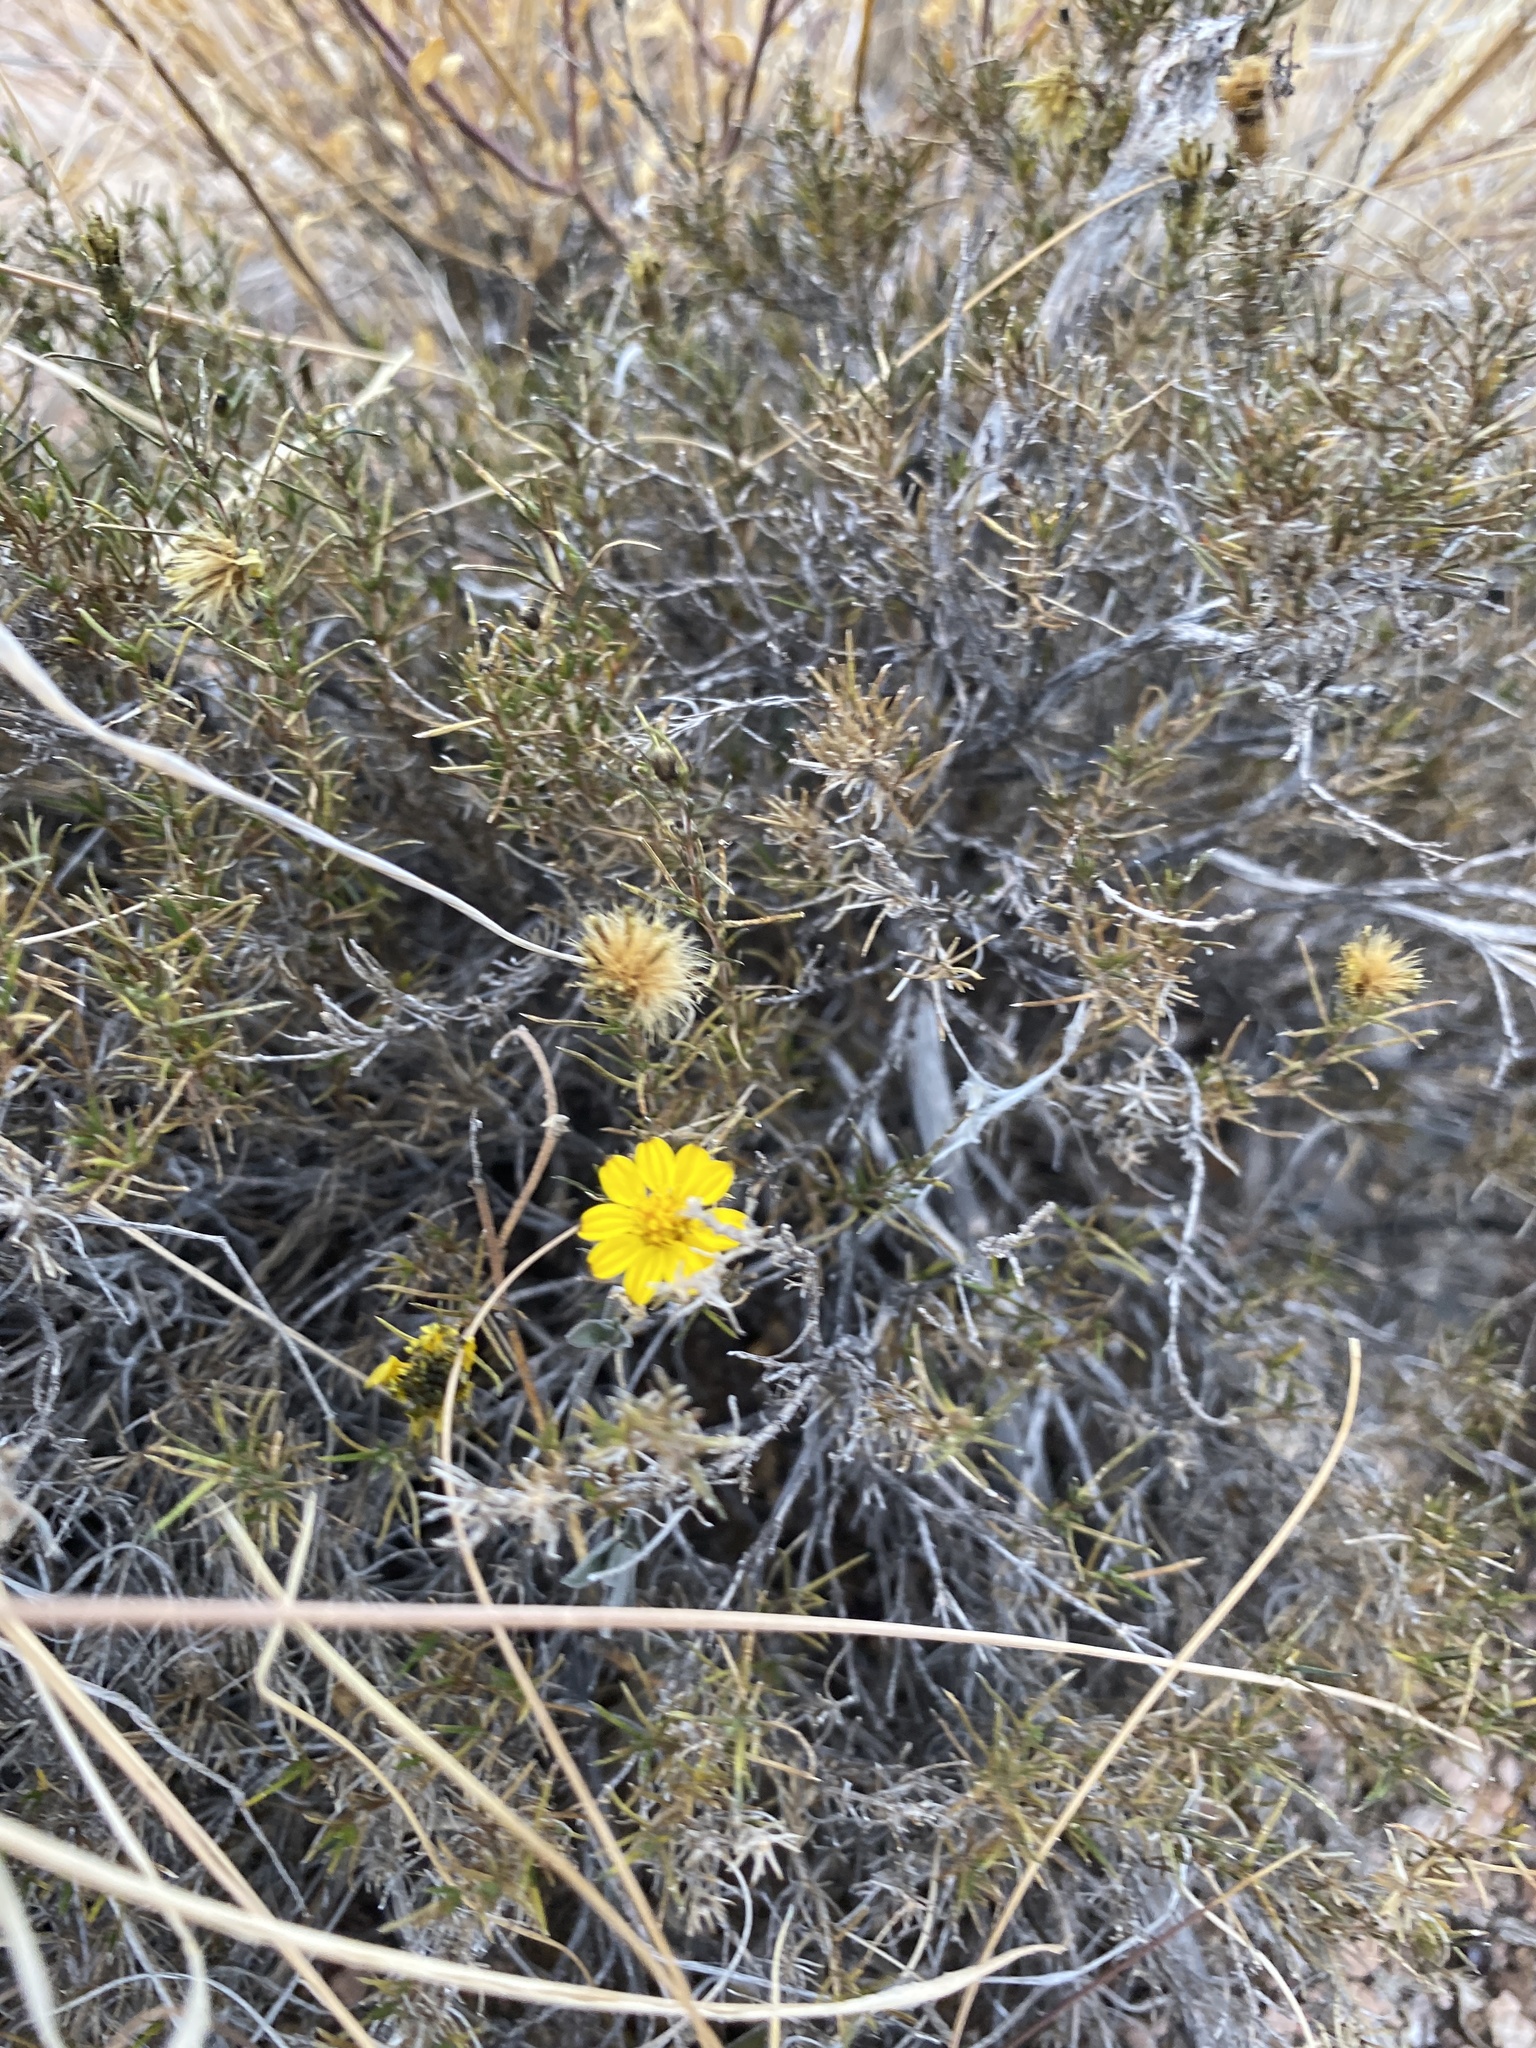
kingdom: Plantae
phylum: Tracheophyta
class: Magnoliopsida
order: Asterales
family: Asteraceae
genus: Thymophylla
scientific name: Thymophylla acerosa
